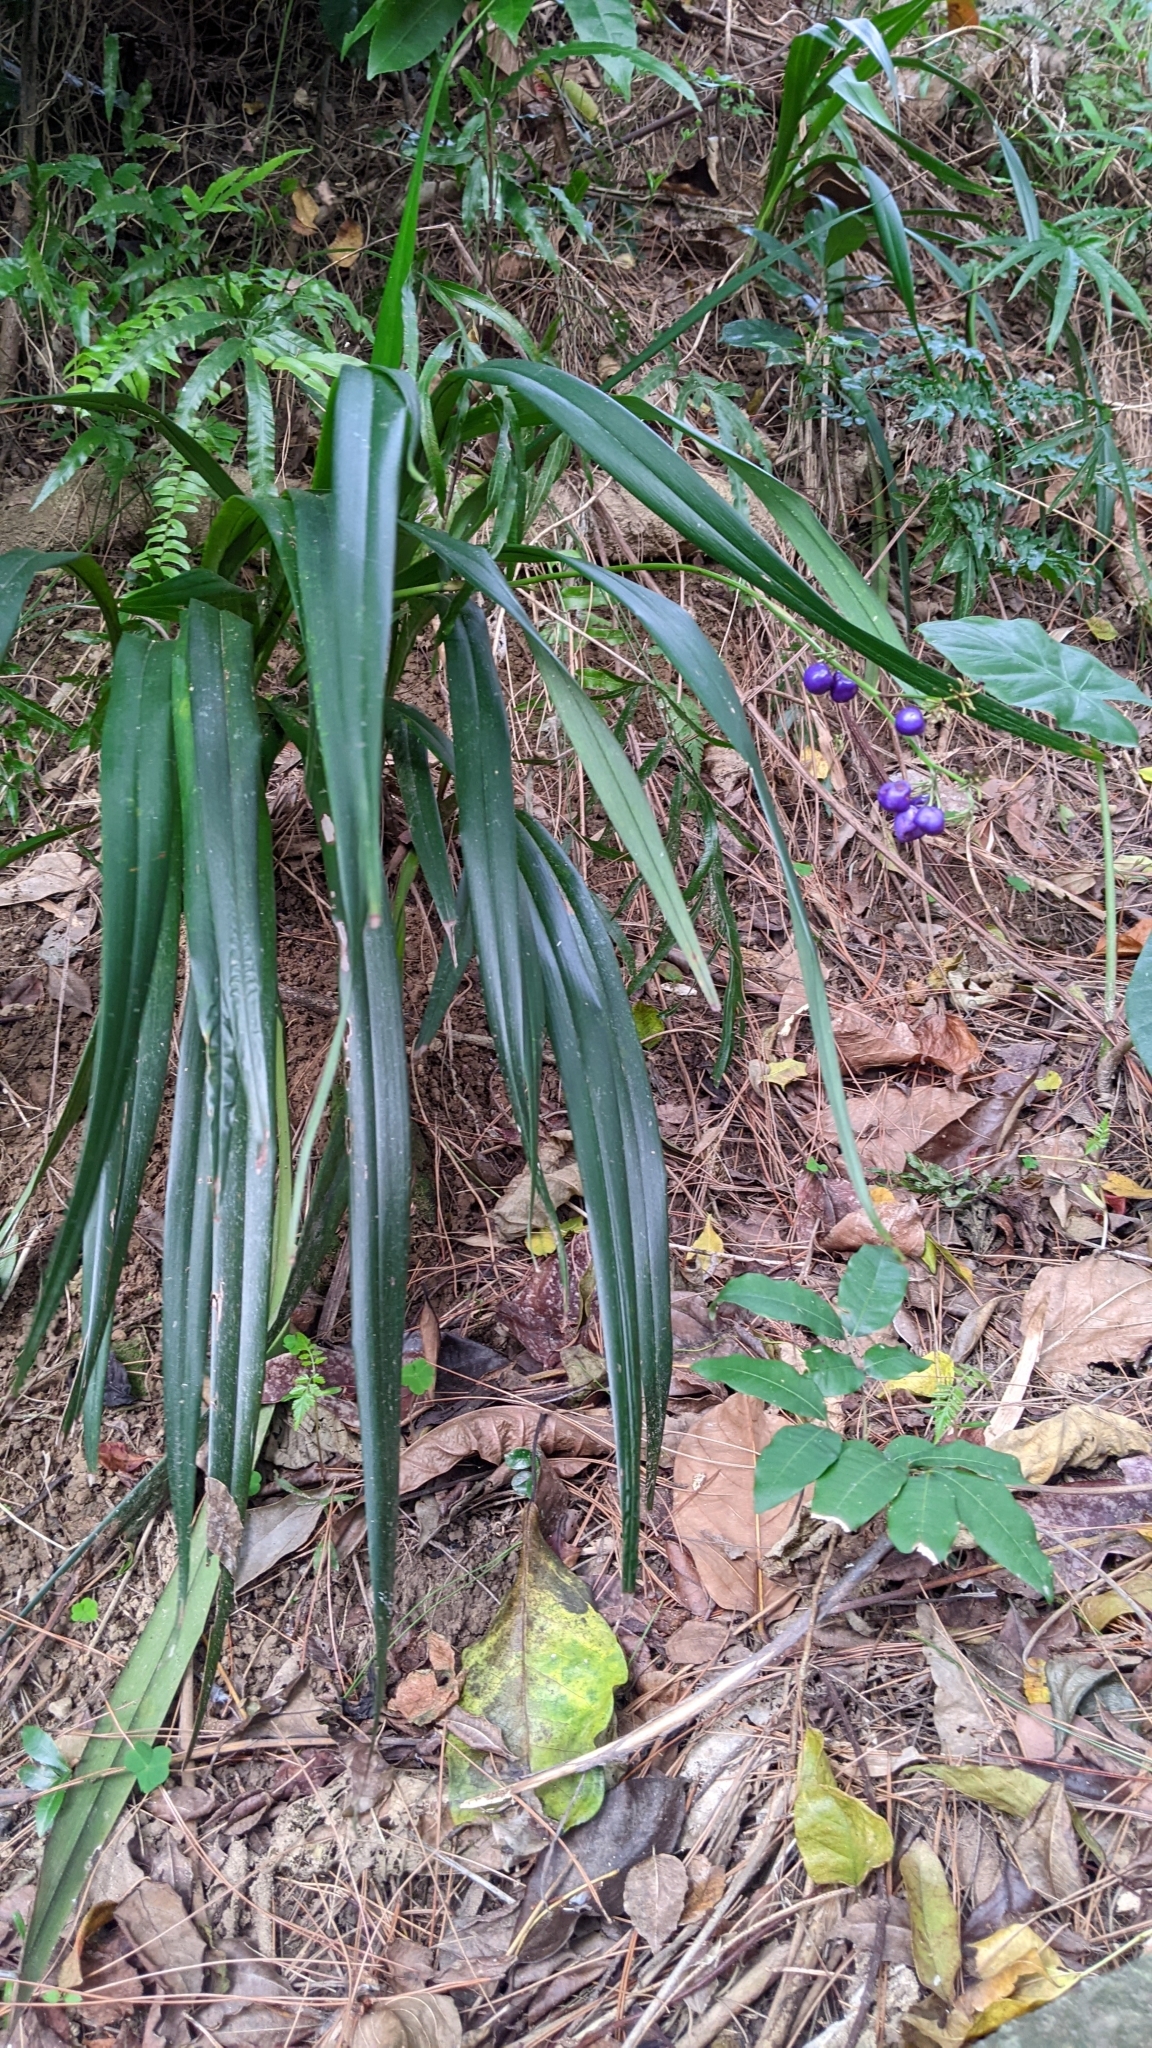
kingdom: Plantae
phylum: Tracheophyta
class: Liliopsida
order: Asparagales
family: Asphodelaceae
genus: Dianella
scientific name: Dianella ensifolia
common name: New zealand lilyplant
